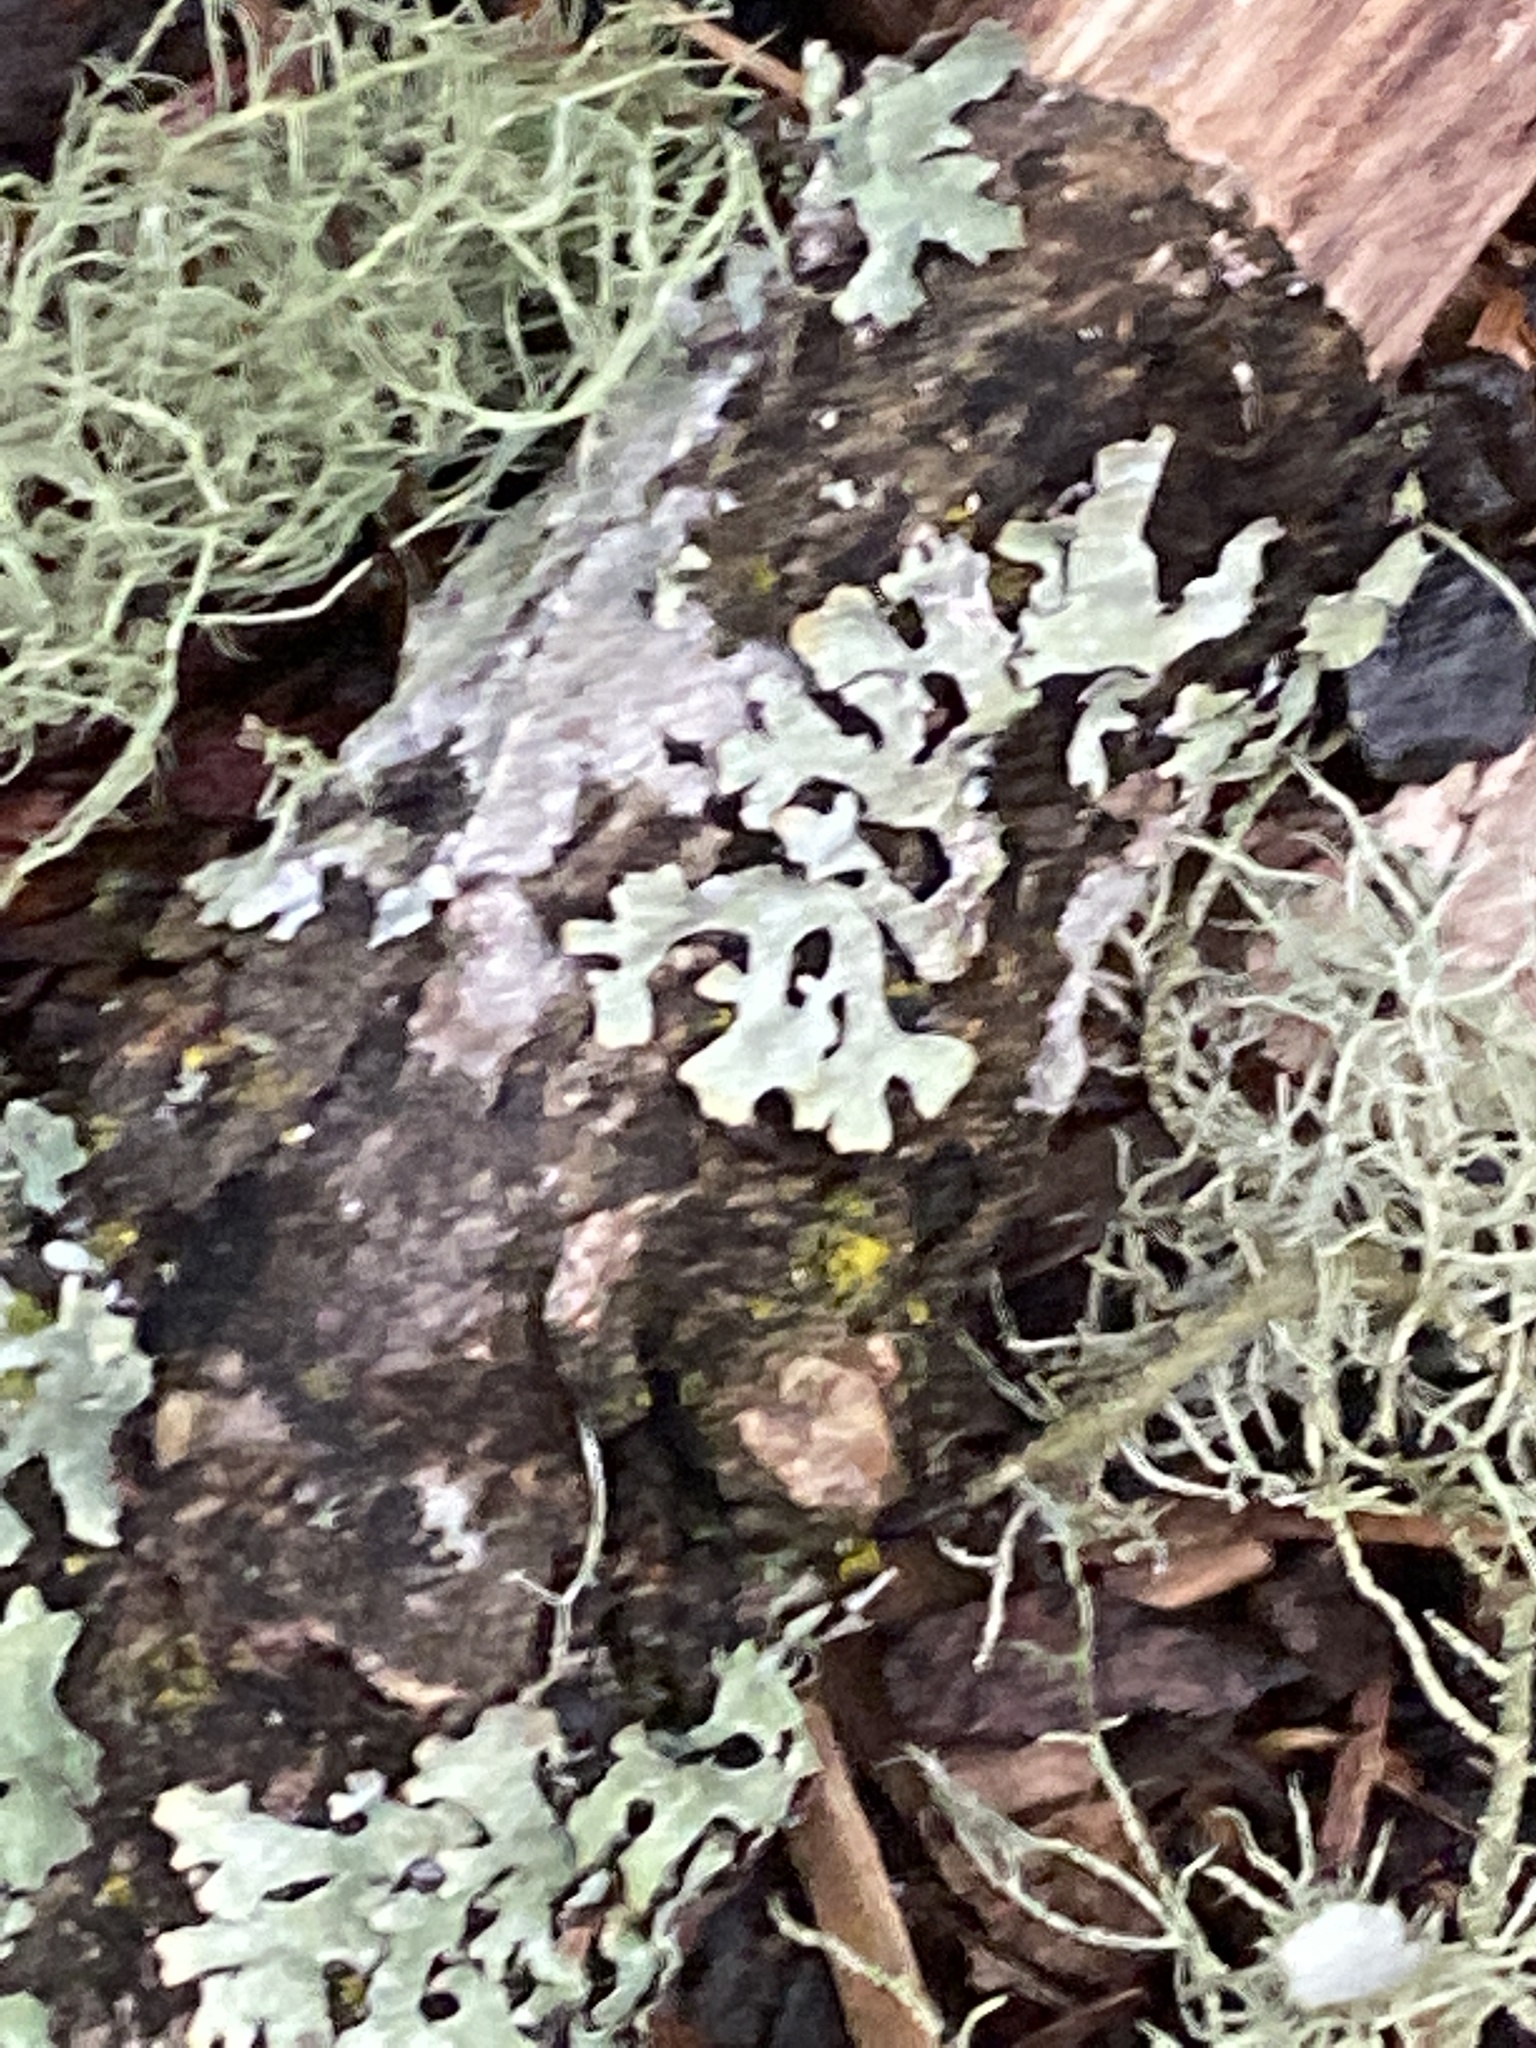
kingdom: Fungi
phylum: Ascomycota
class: Lecanoromycetes
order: Lecanorales
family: Parmeliaceae
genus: Parmelia
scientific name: Parmelia sulcata
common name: Netted shield lichen
